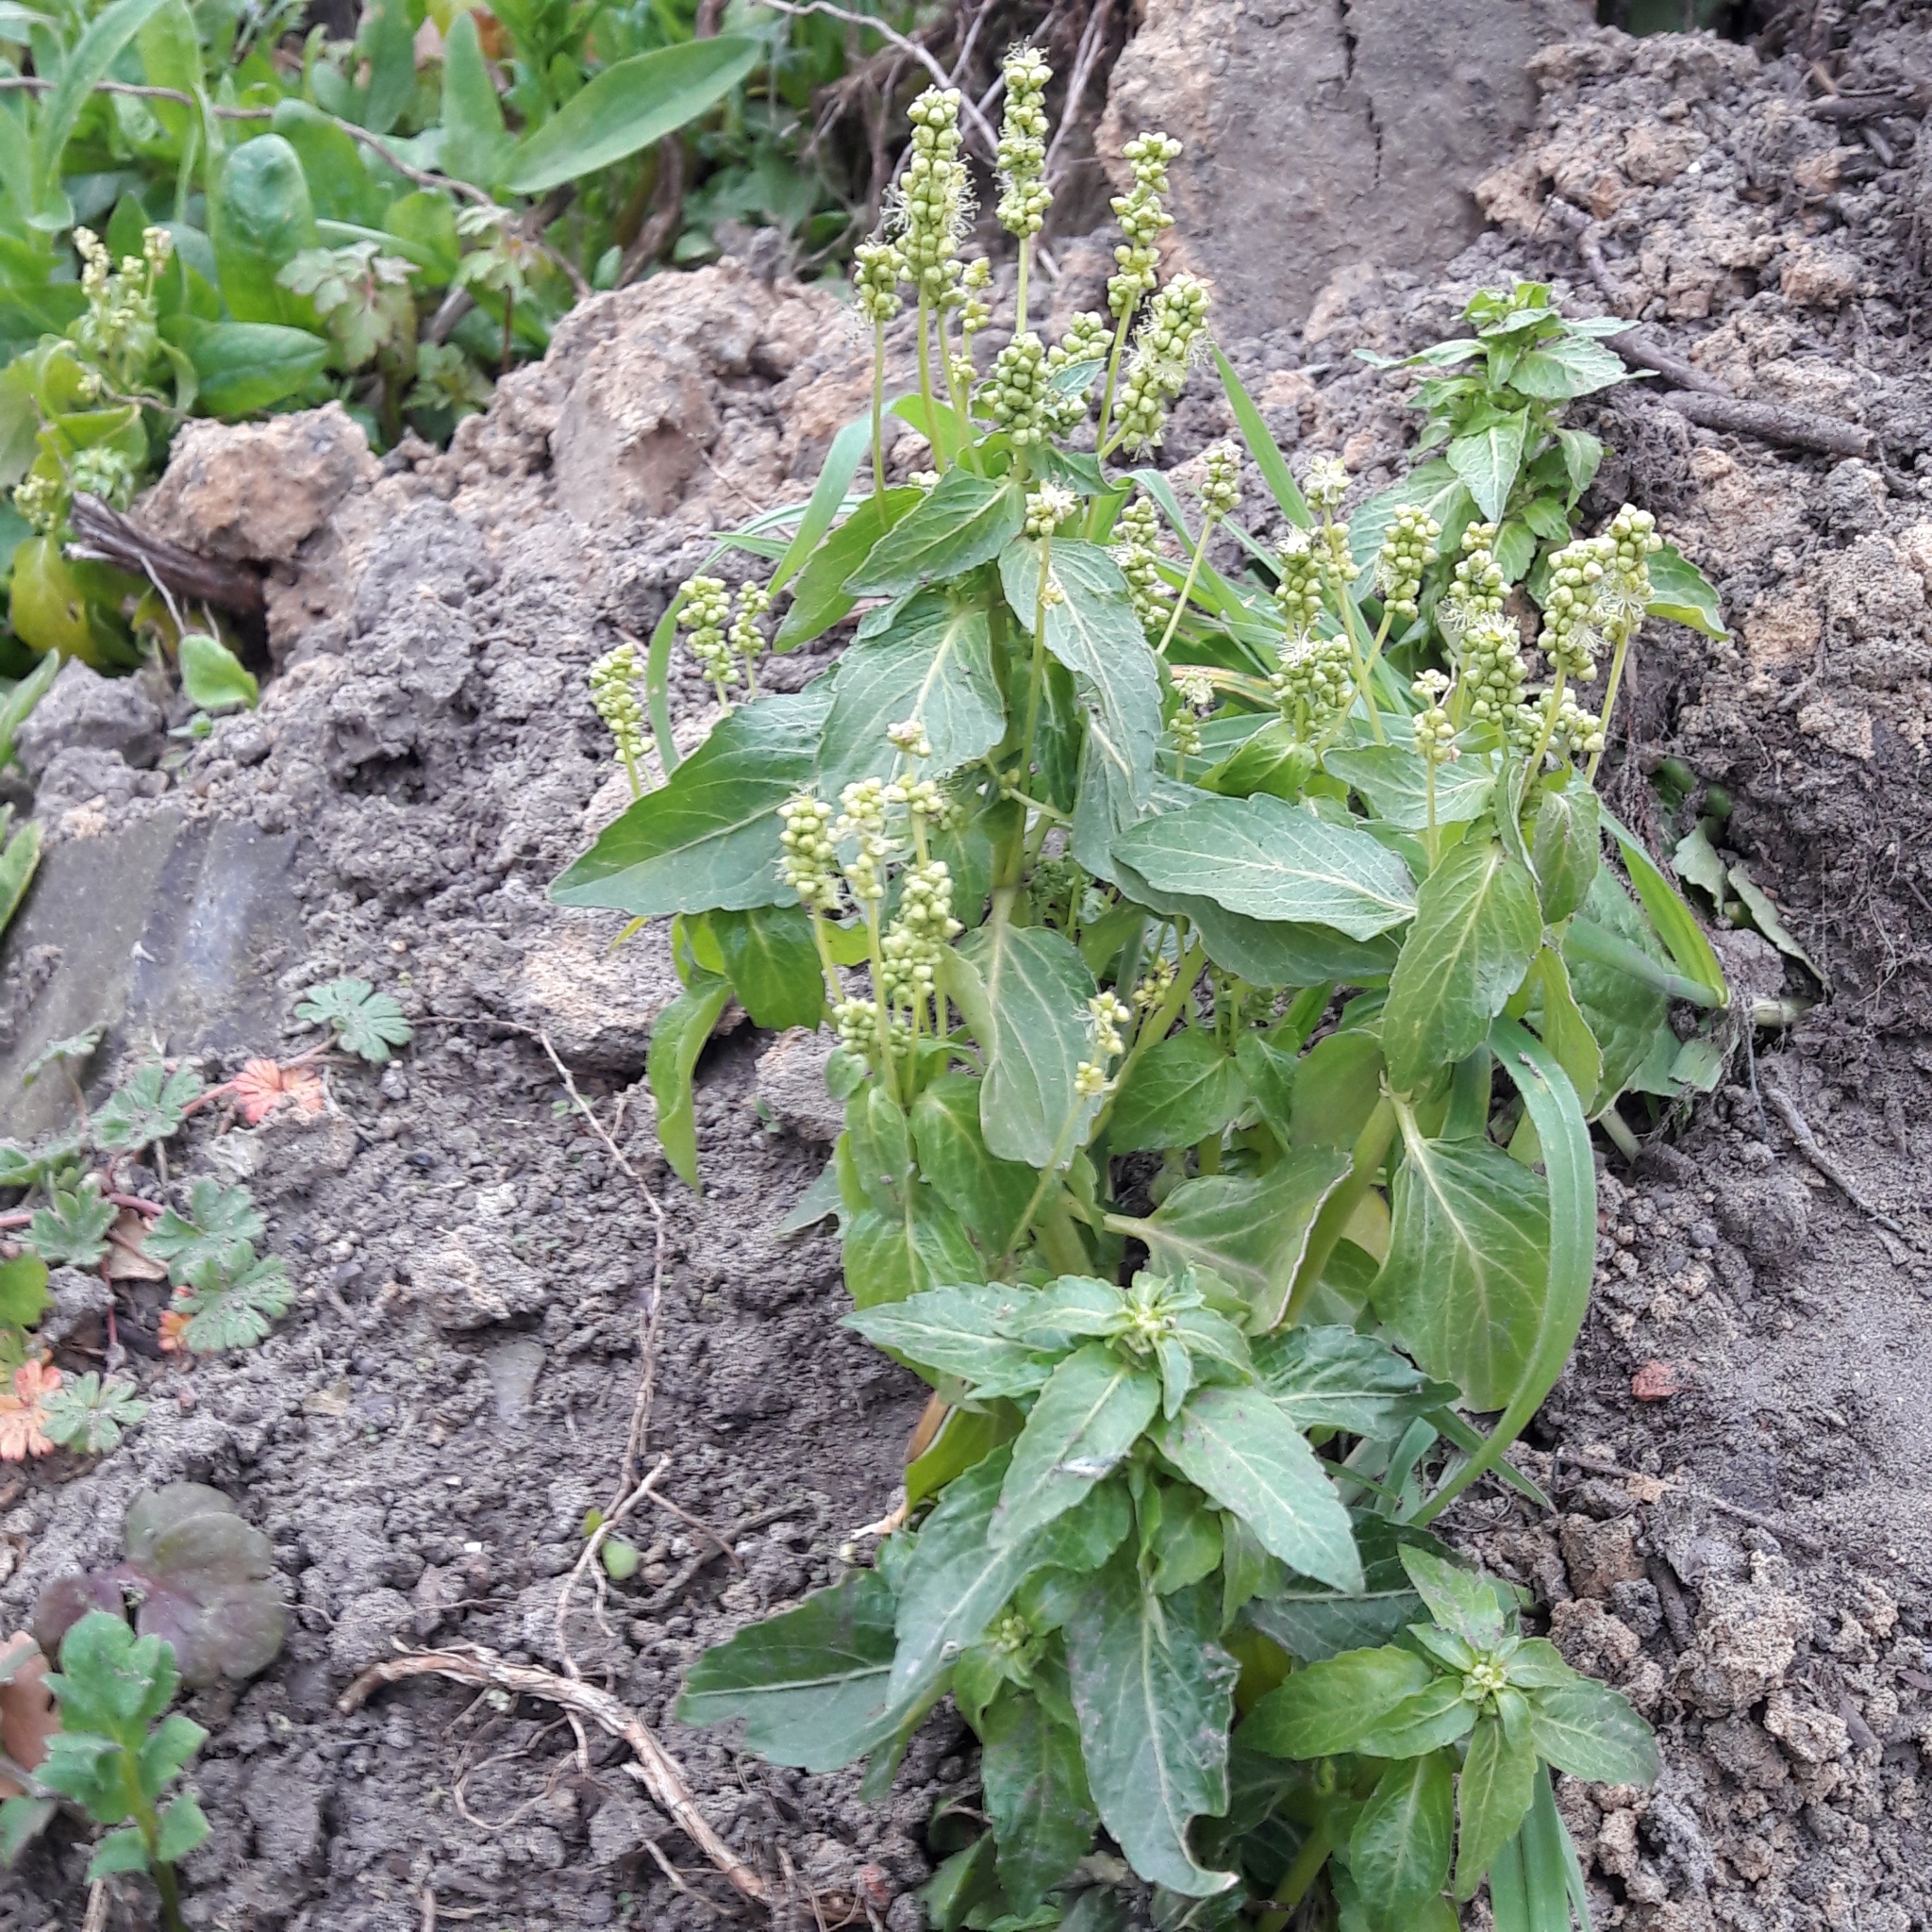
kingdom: Plantae
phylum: Tracheophyta
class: Magnoliopsida
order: Malpighiales
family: Euphorbiaceae
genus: Mercurialis
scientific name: Mercurialis annua
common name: Annual mercury
